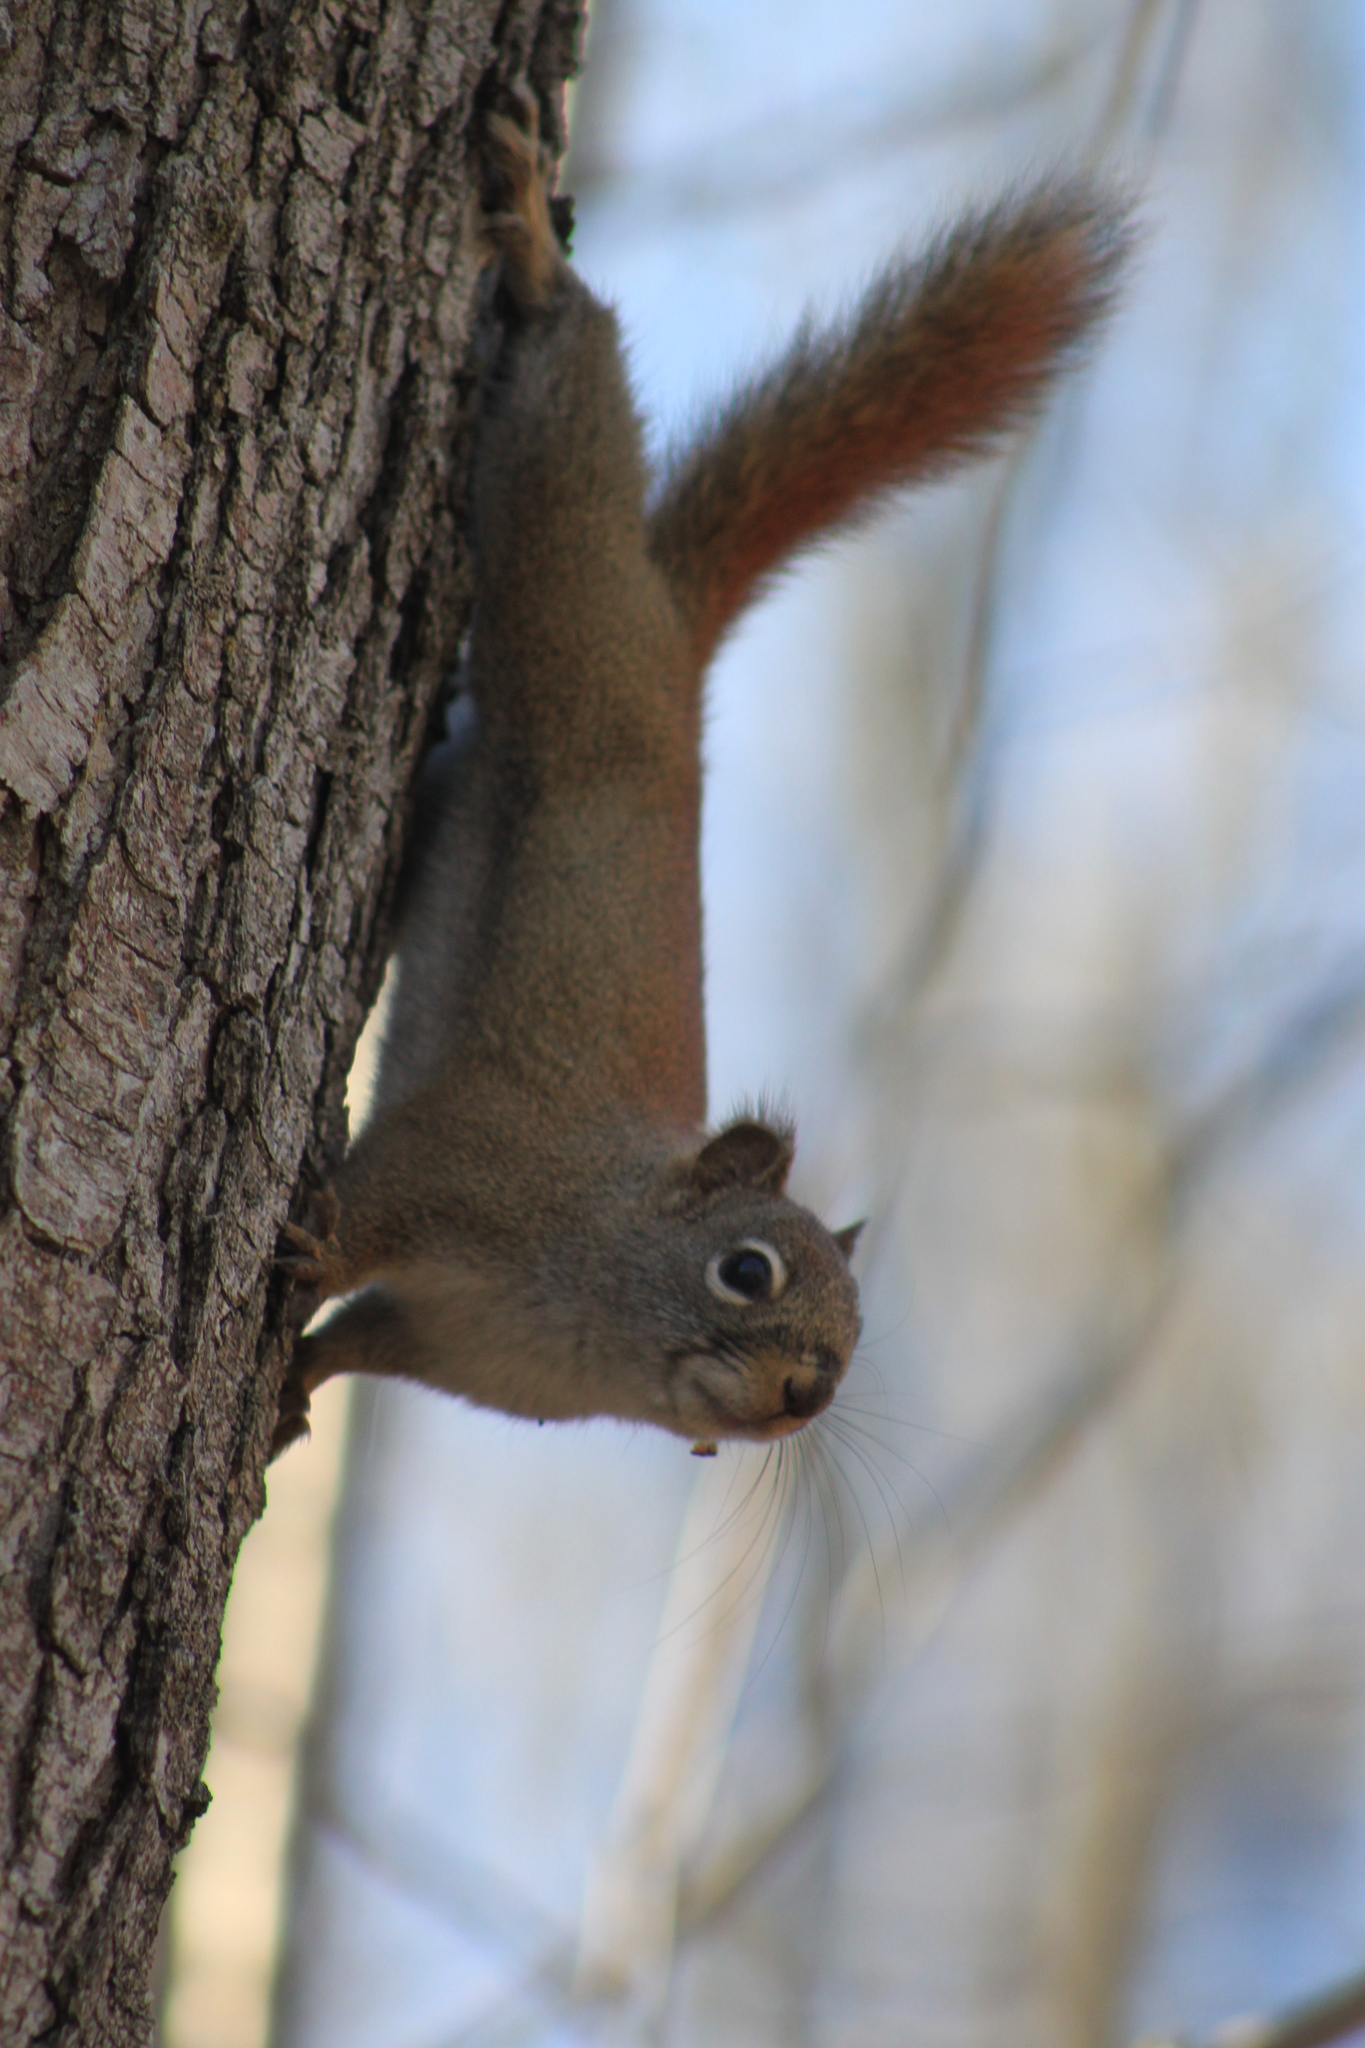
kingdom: Animalia
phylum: Chordata
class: Mammalia
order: Rodentia
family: Sciuridae
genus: Tamiasciurus
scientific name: Tamiasciurus hudsonicus
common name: Red squirrel
